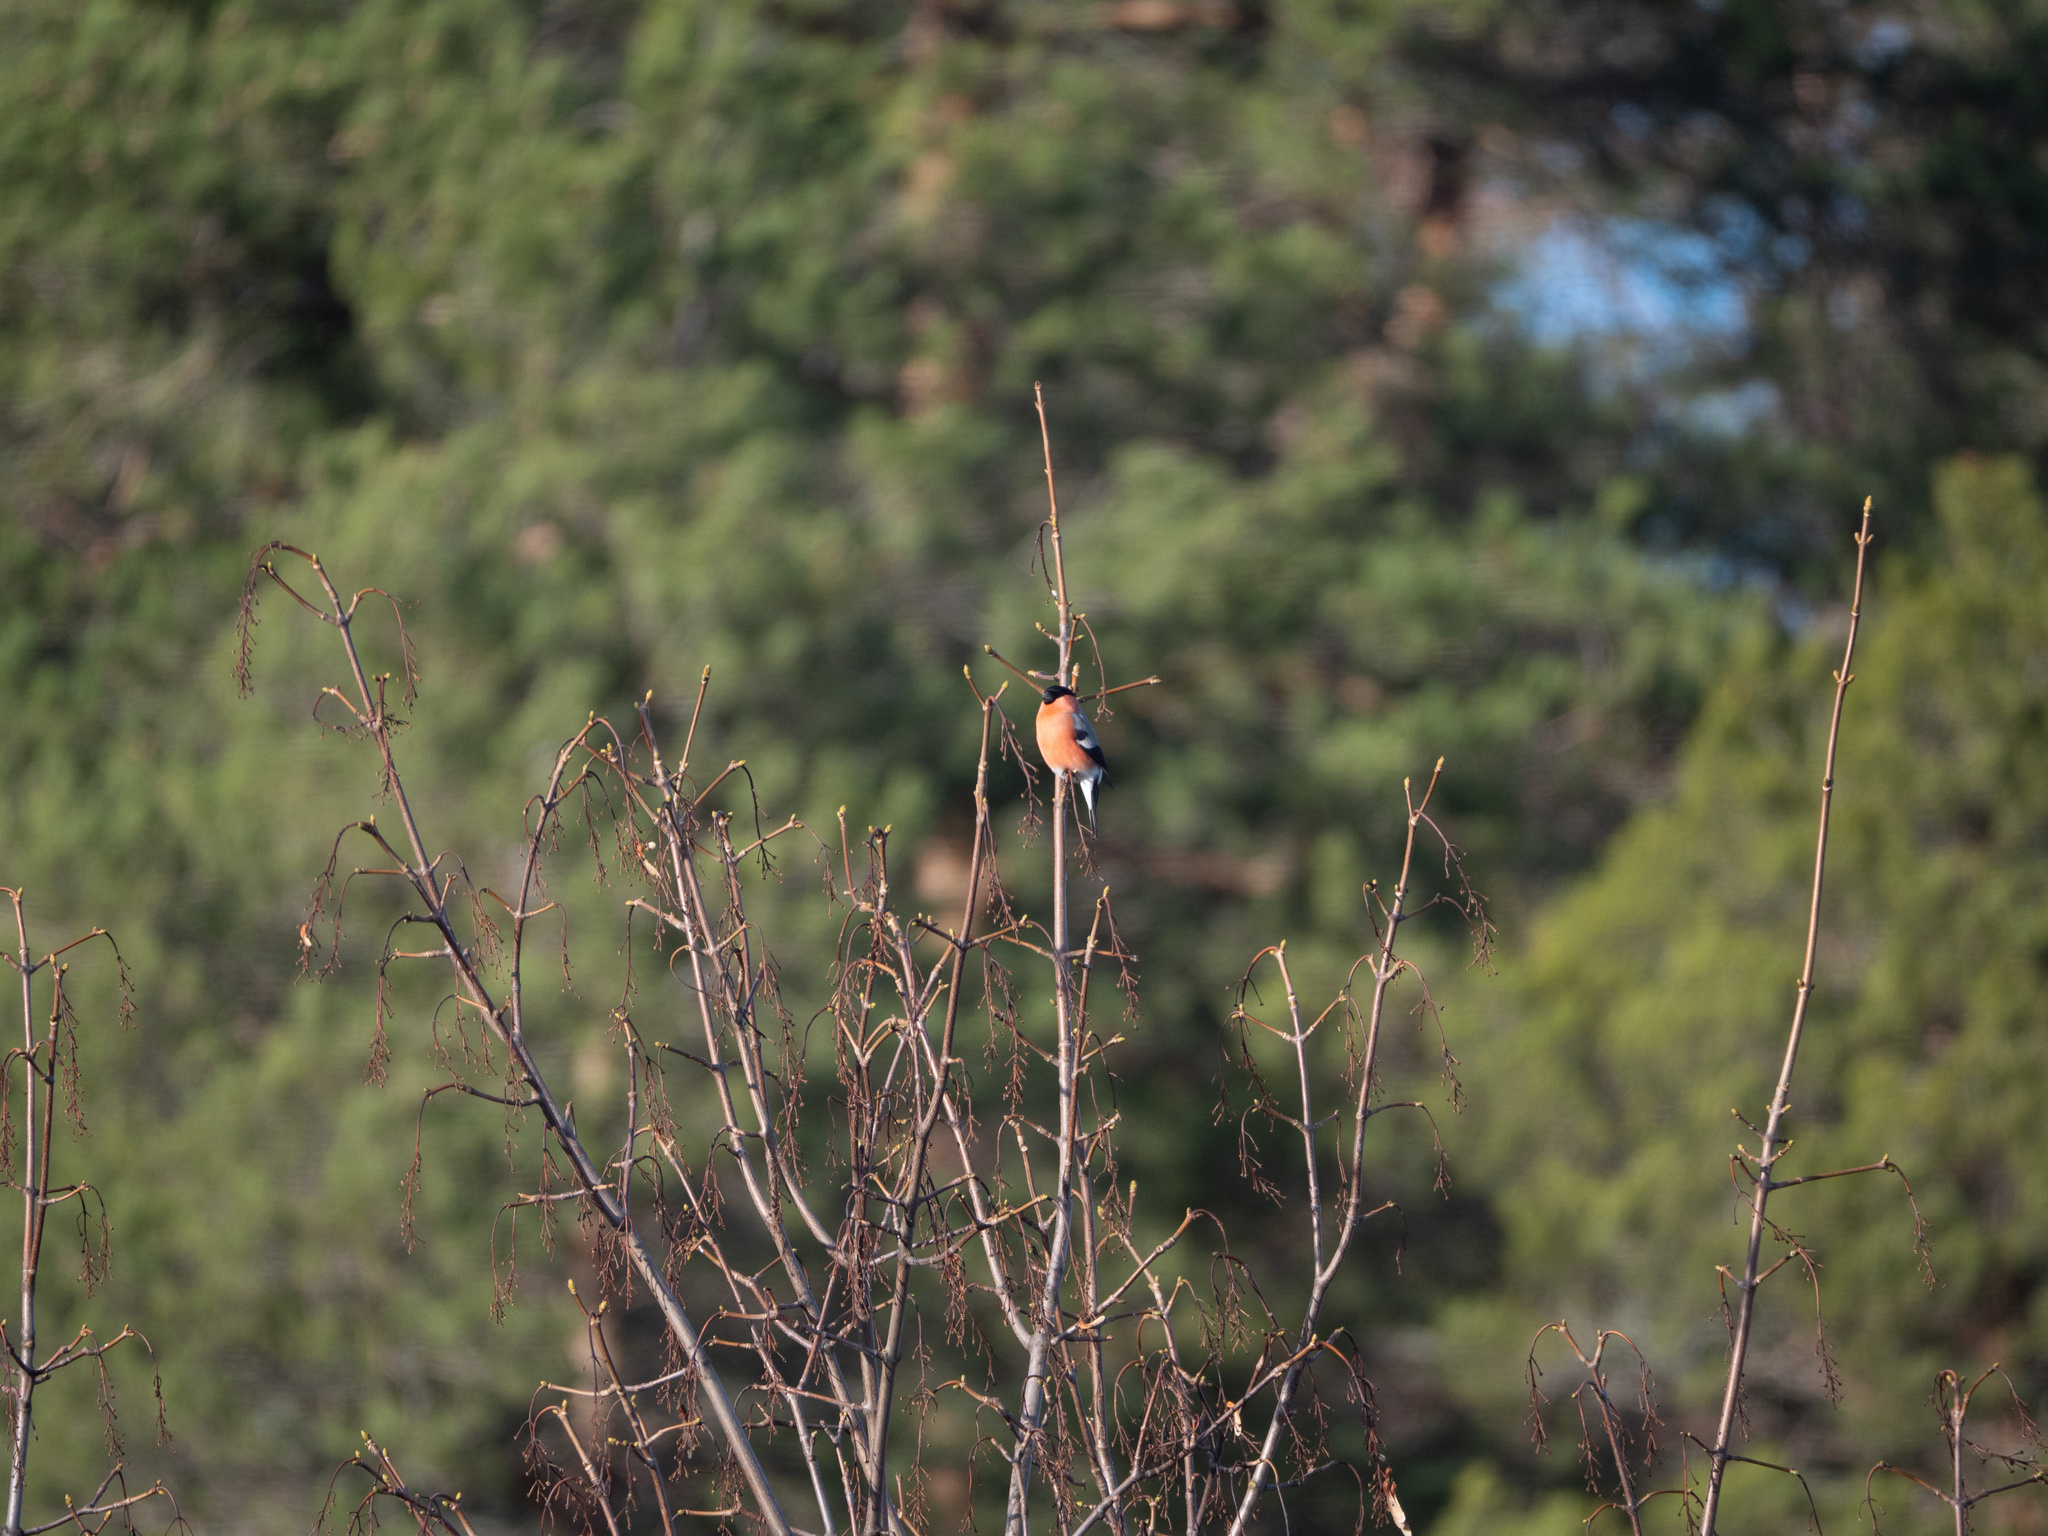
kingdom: Animalia
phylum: Chordata
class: Aves
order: Passeriformes
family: Fringillidae
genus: Pyrrhula
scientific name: Pyrrhula pyrrhula
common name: Eurasian bullfinch
